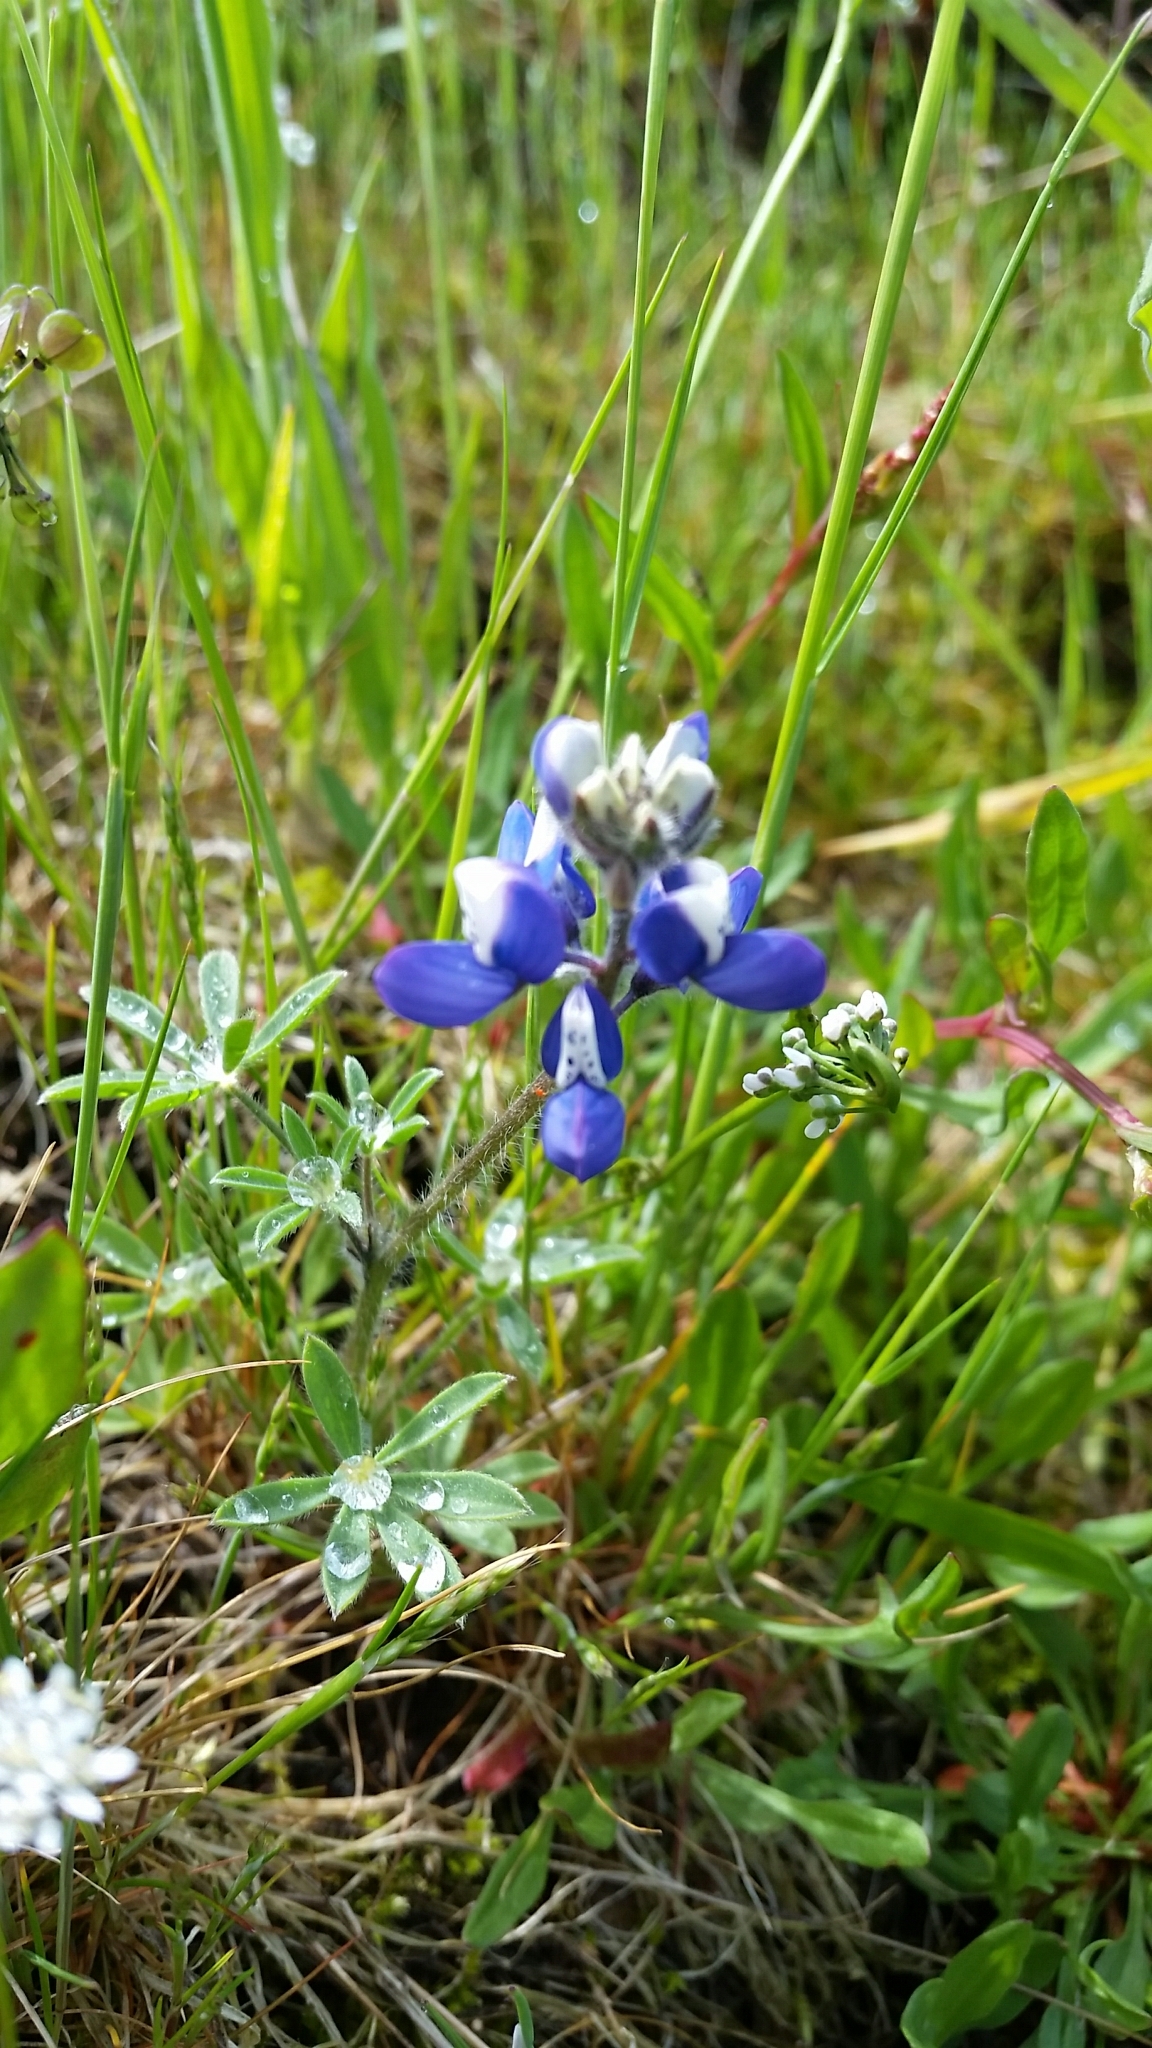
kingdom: Plantae
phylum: Tracheophyta
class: Magnoliopsida
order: Fabales
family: Fabaceae
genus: Lupinus
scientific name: Lupinus bicolor
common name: Miniature lupine
